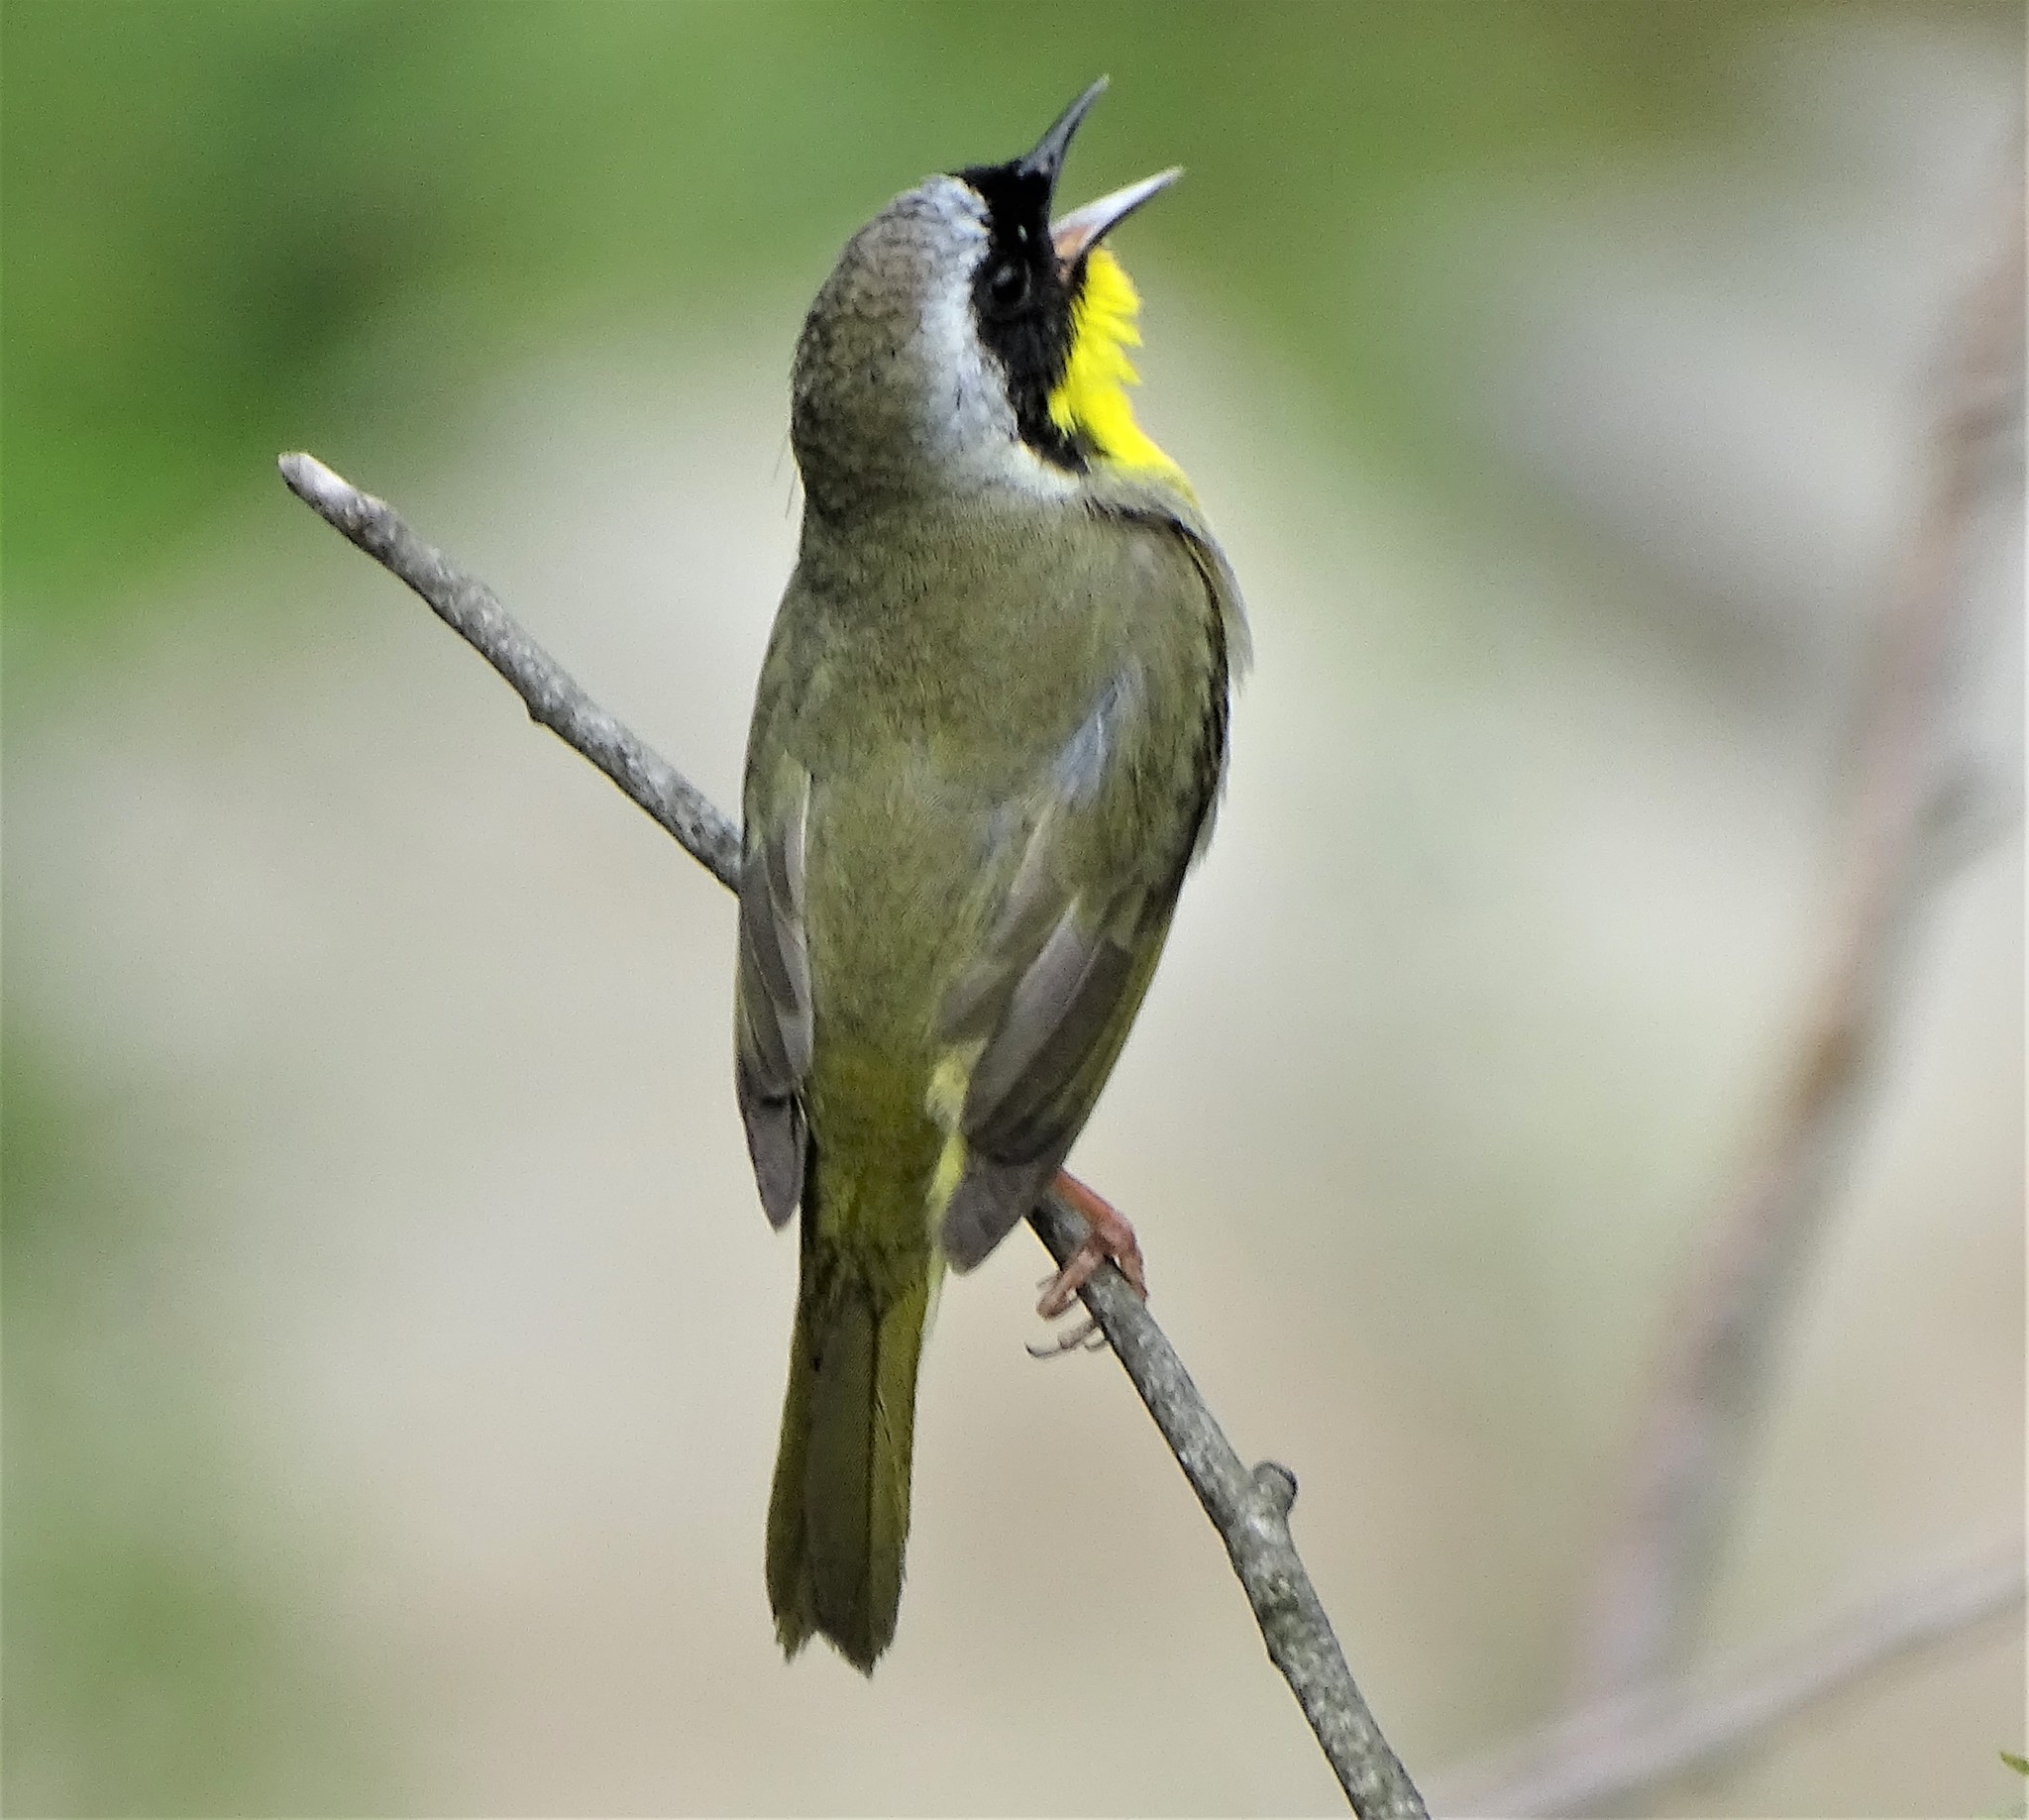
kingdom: Animalia
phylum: Chordata
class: Aves
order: Passeriformes
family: Parulidae
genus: Geothlypis
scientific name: Geothlypis trichas
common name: Common yellowthroat
